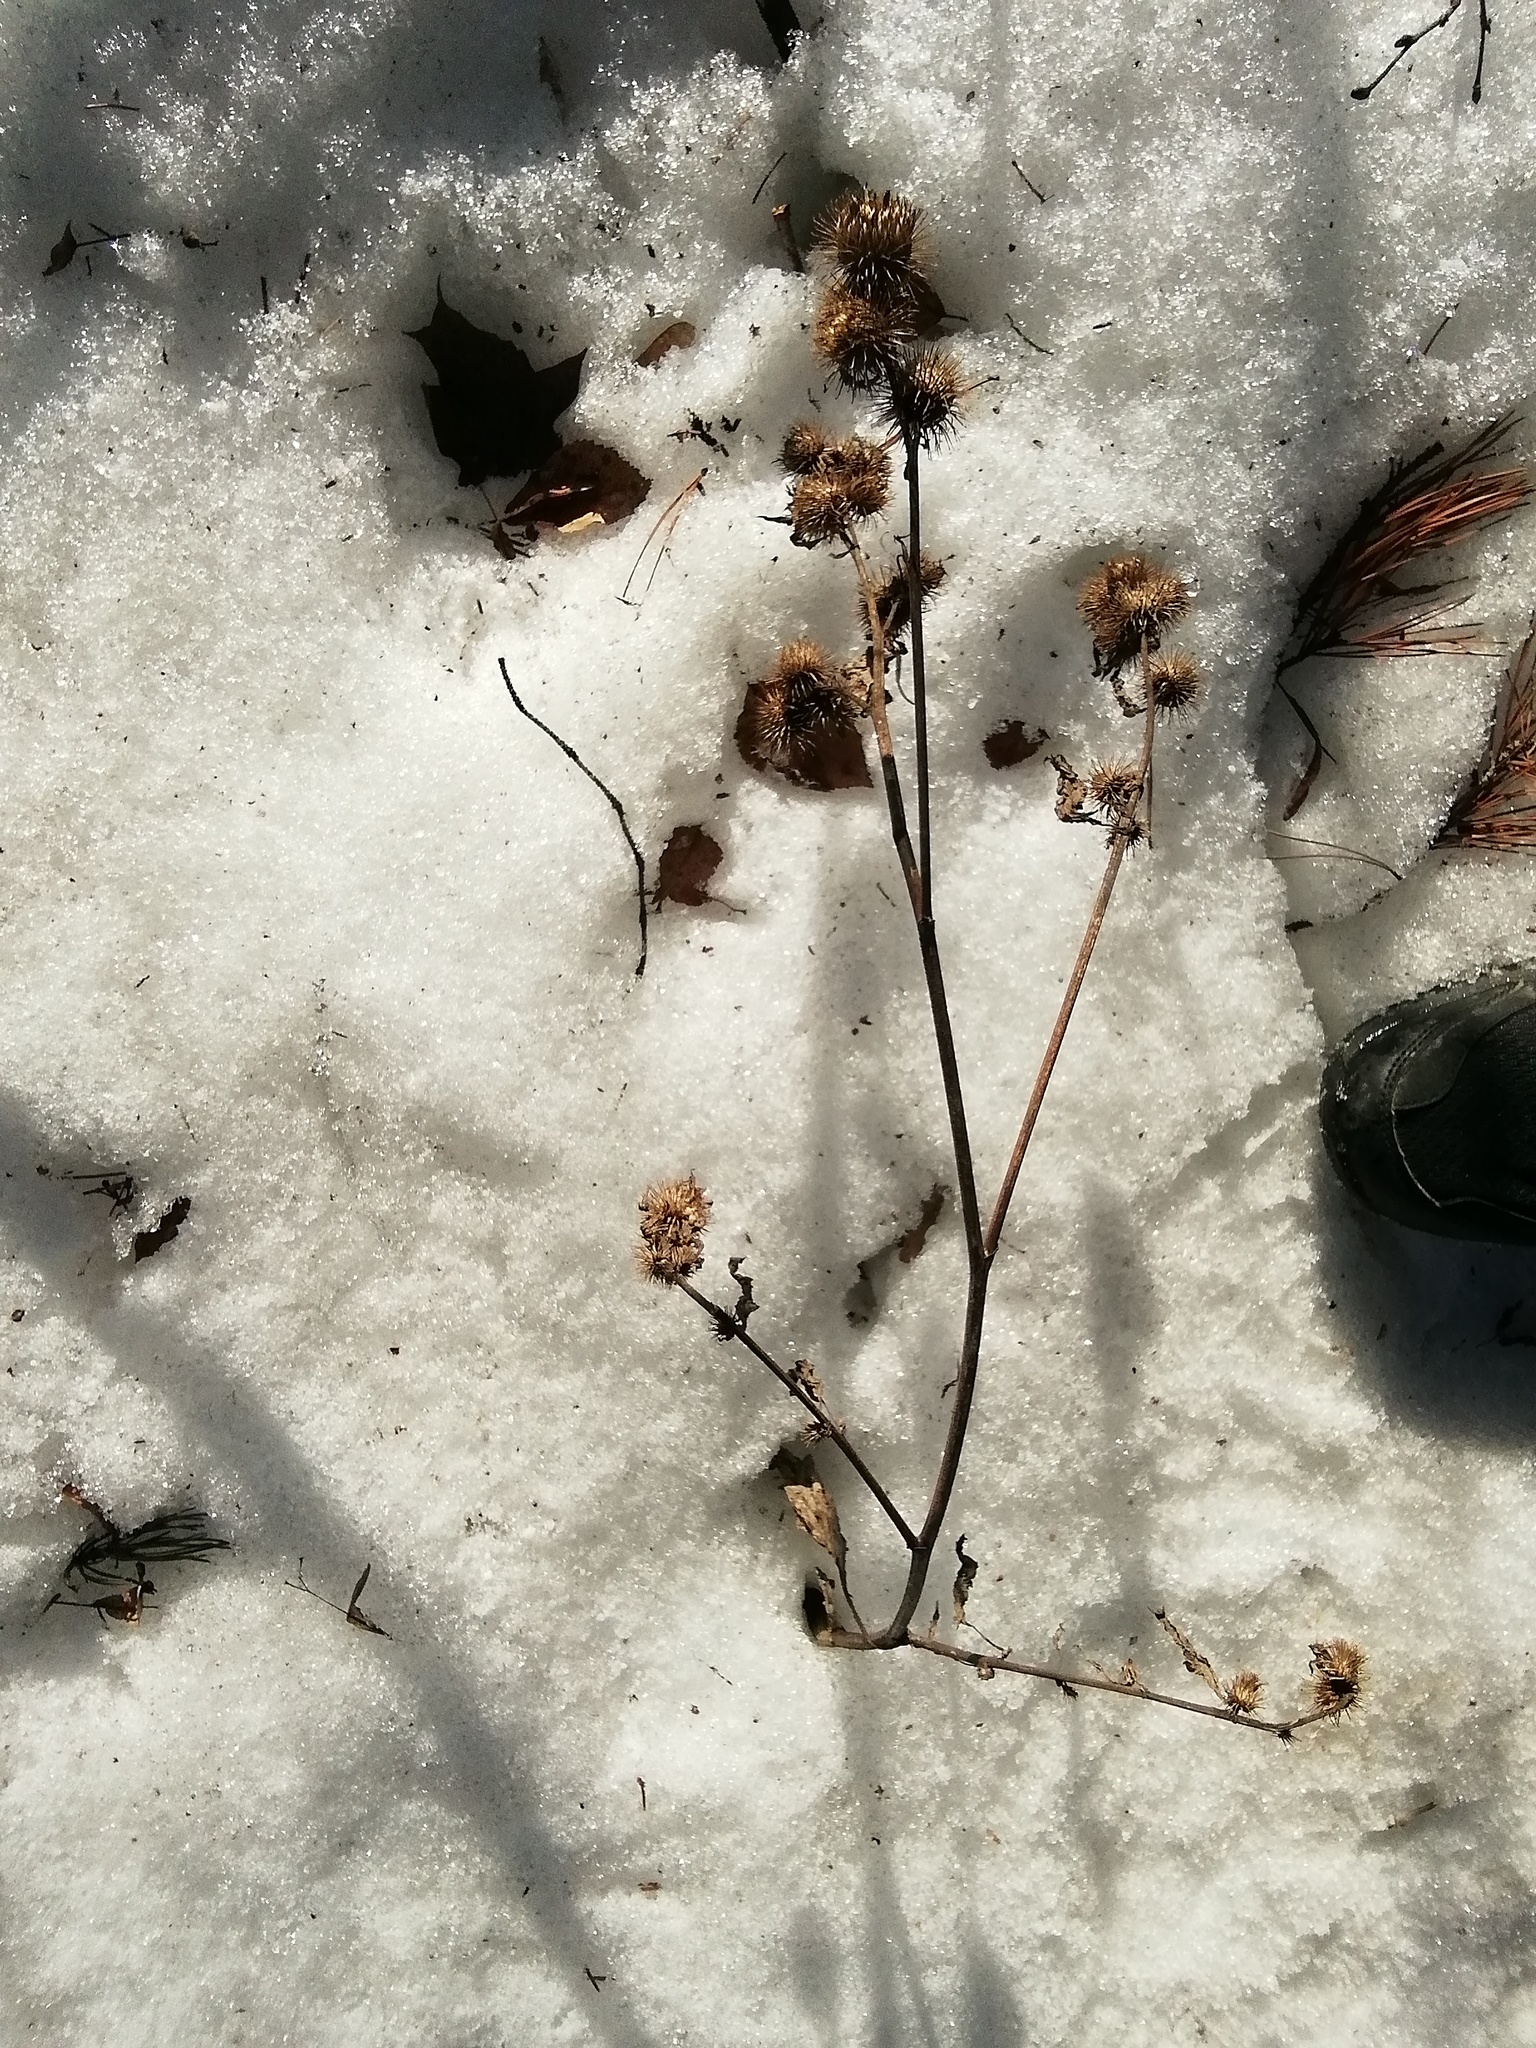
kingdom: Plantae
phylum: Tracheophyta
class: Magnoliopsida
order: Asterales
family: Asteraceae
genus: Arctium
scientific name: Arctium
